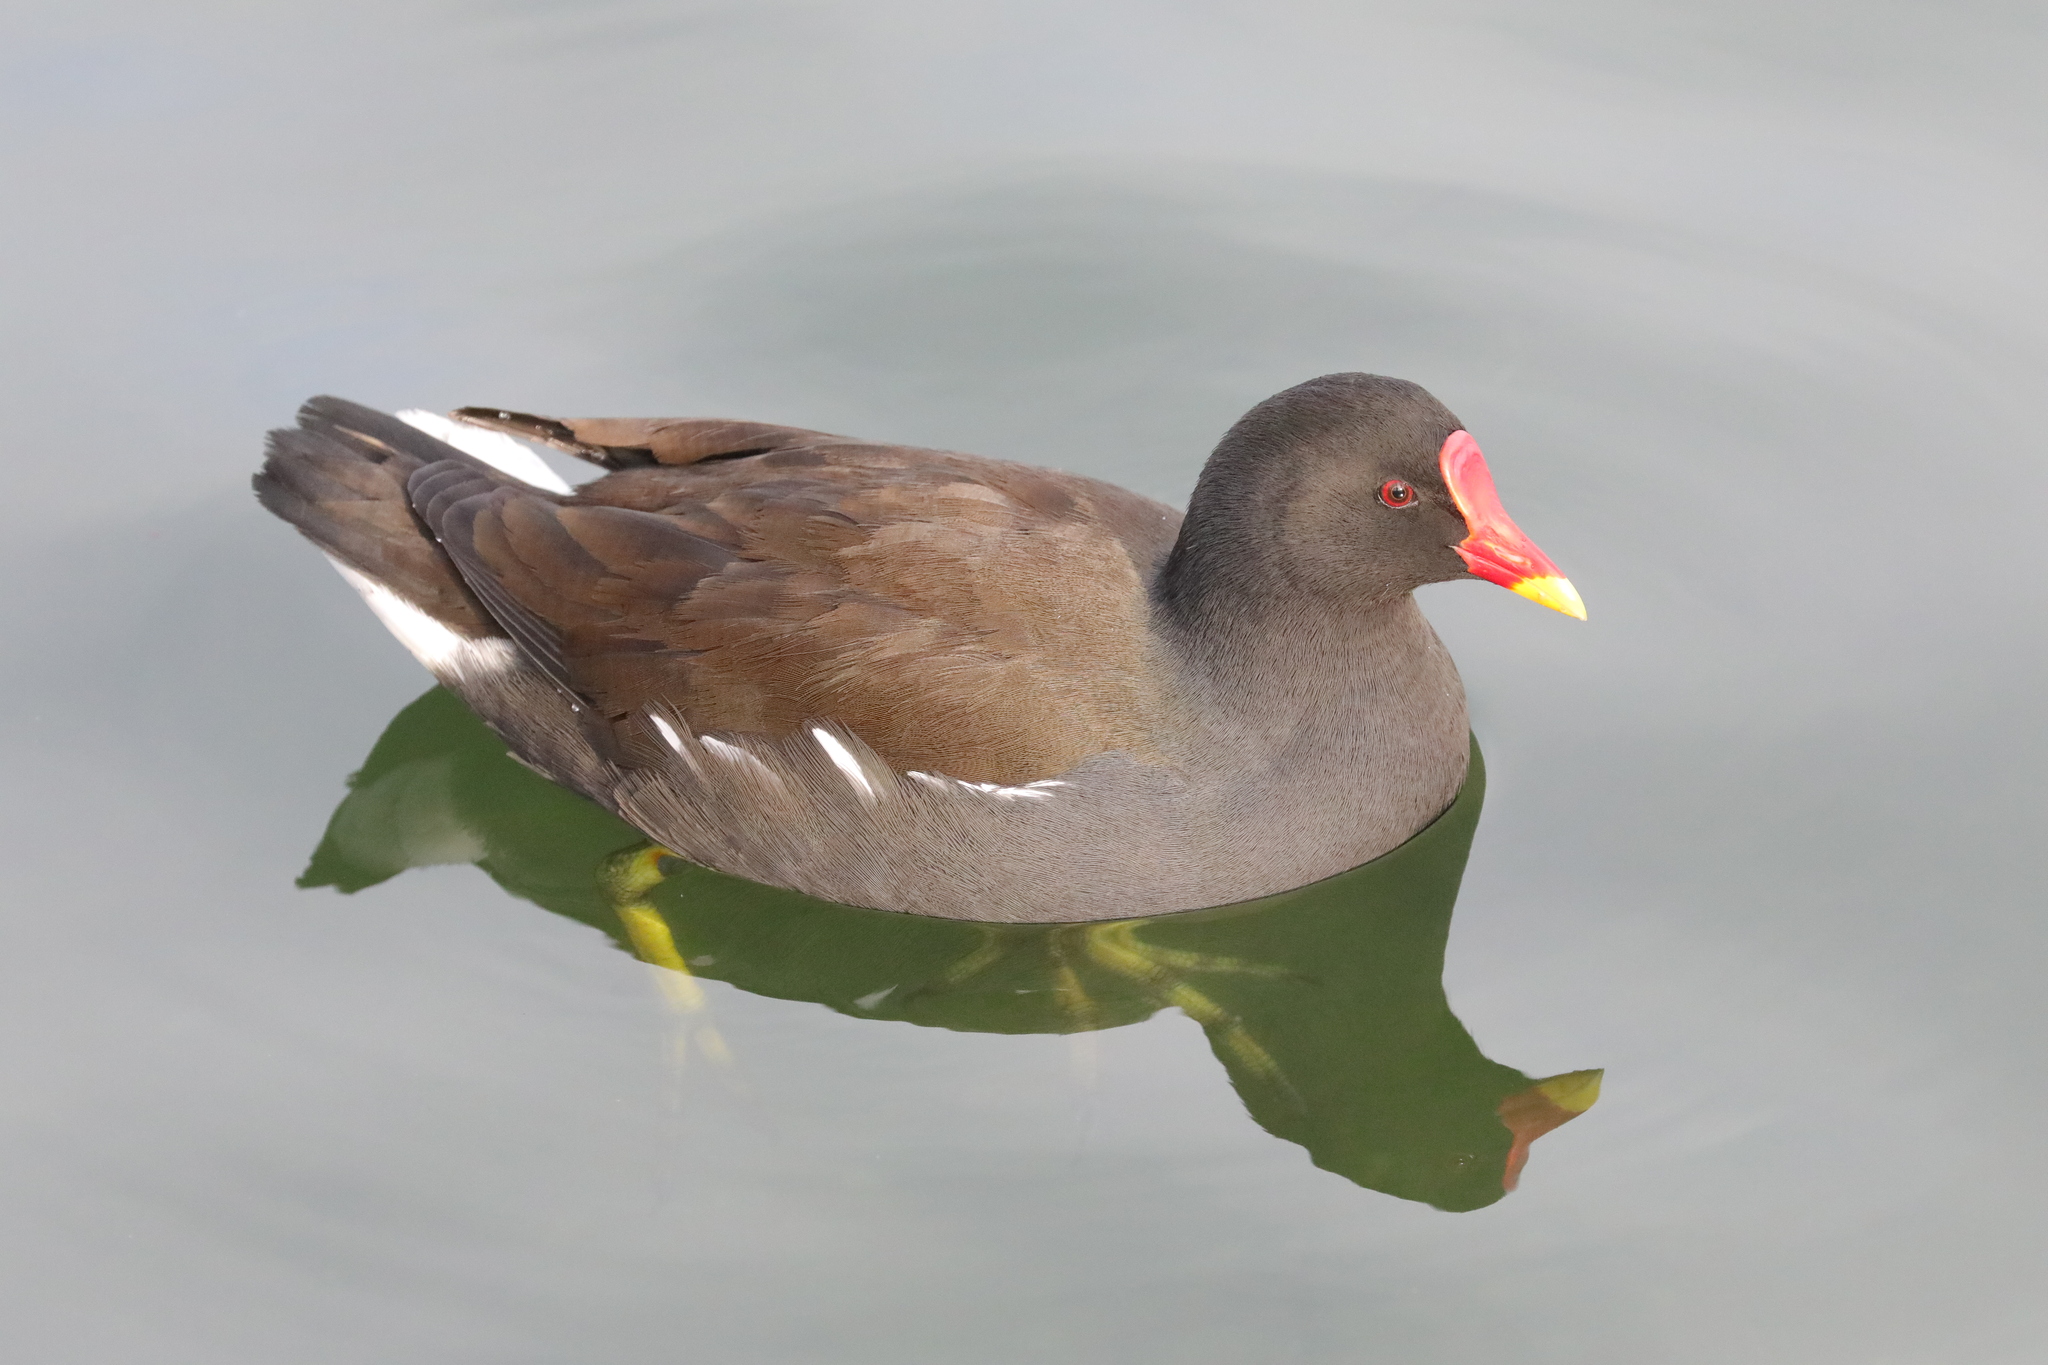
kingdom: Animalia
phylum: Chordata
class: Aves
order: Gruiformes
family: Rallidae
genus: Gallinula
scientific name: Gallinula chloropus
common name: Common moorhen
